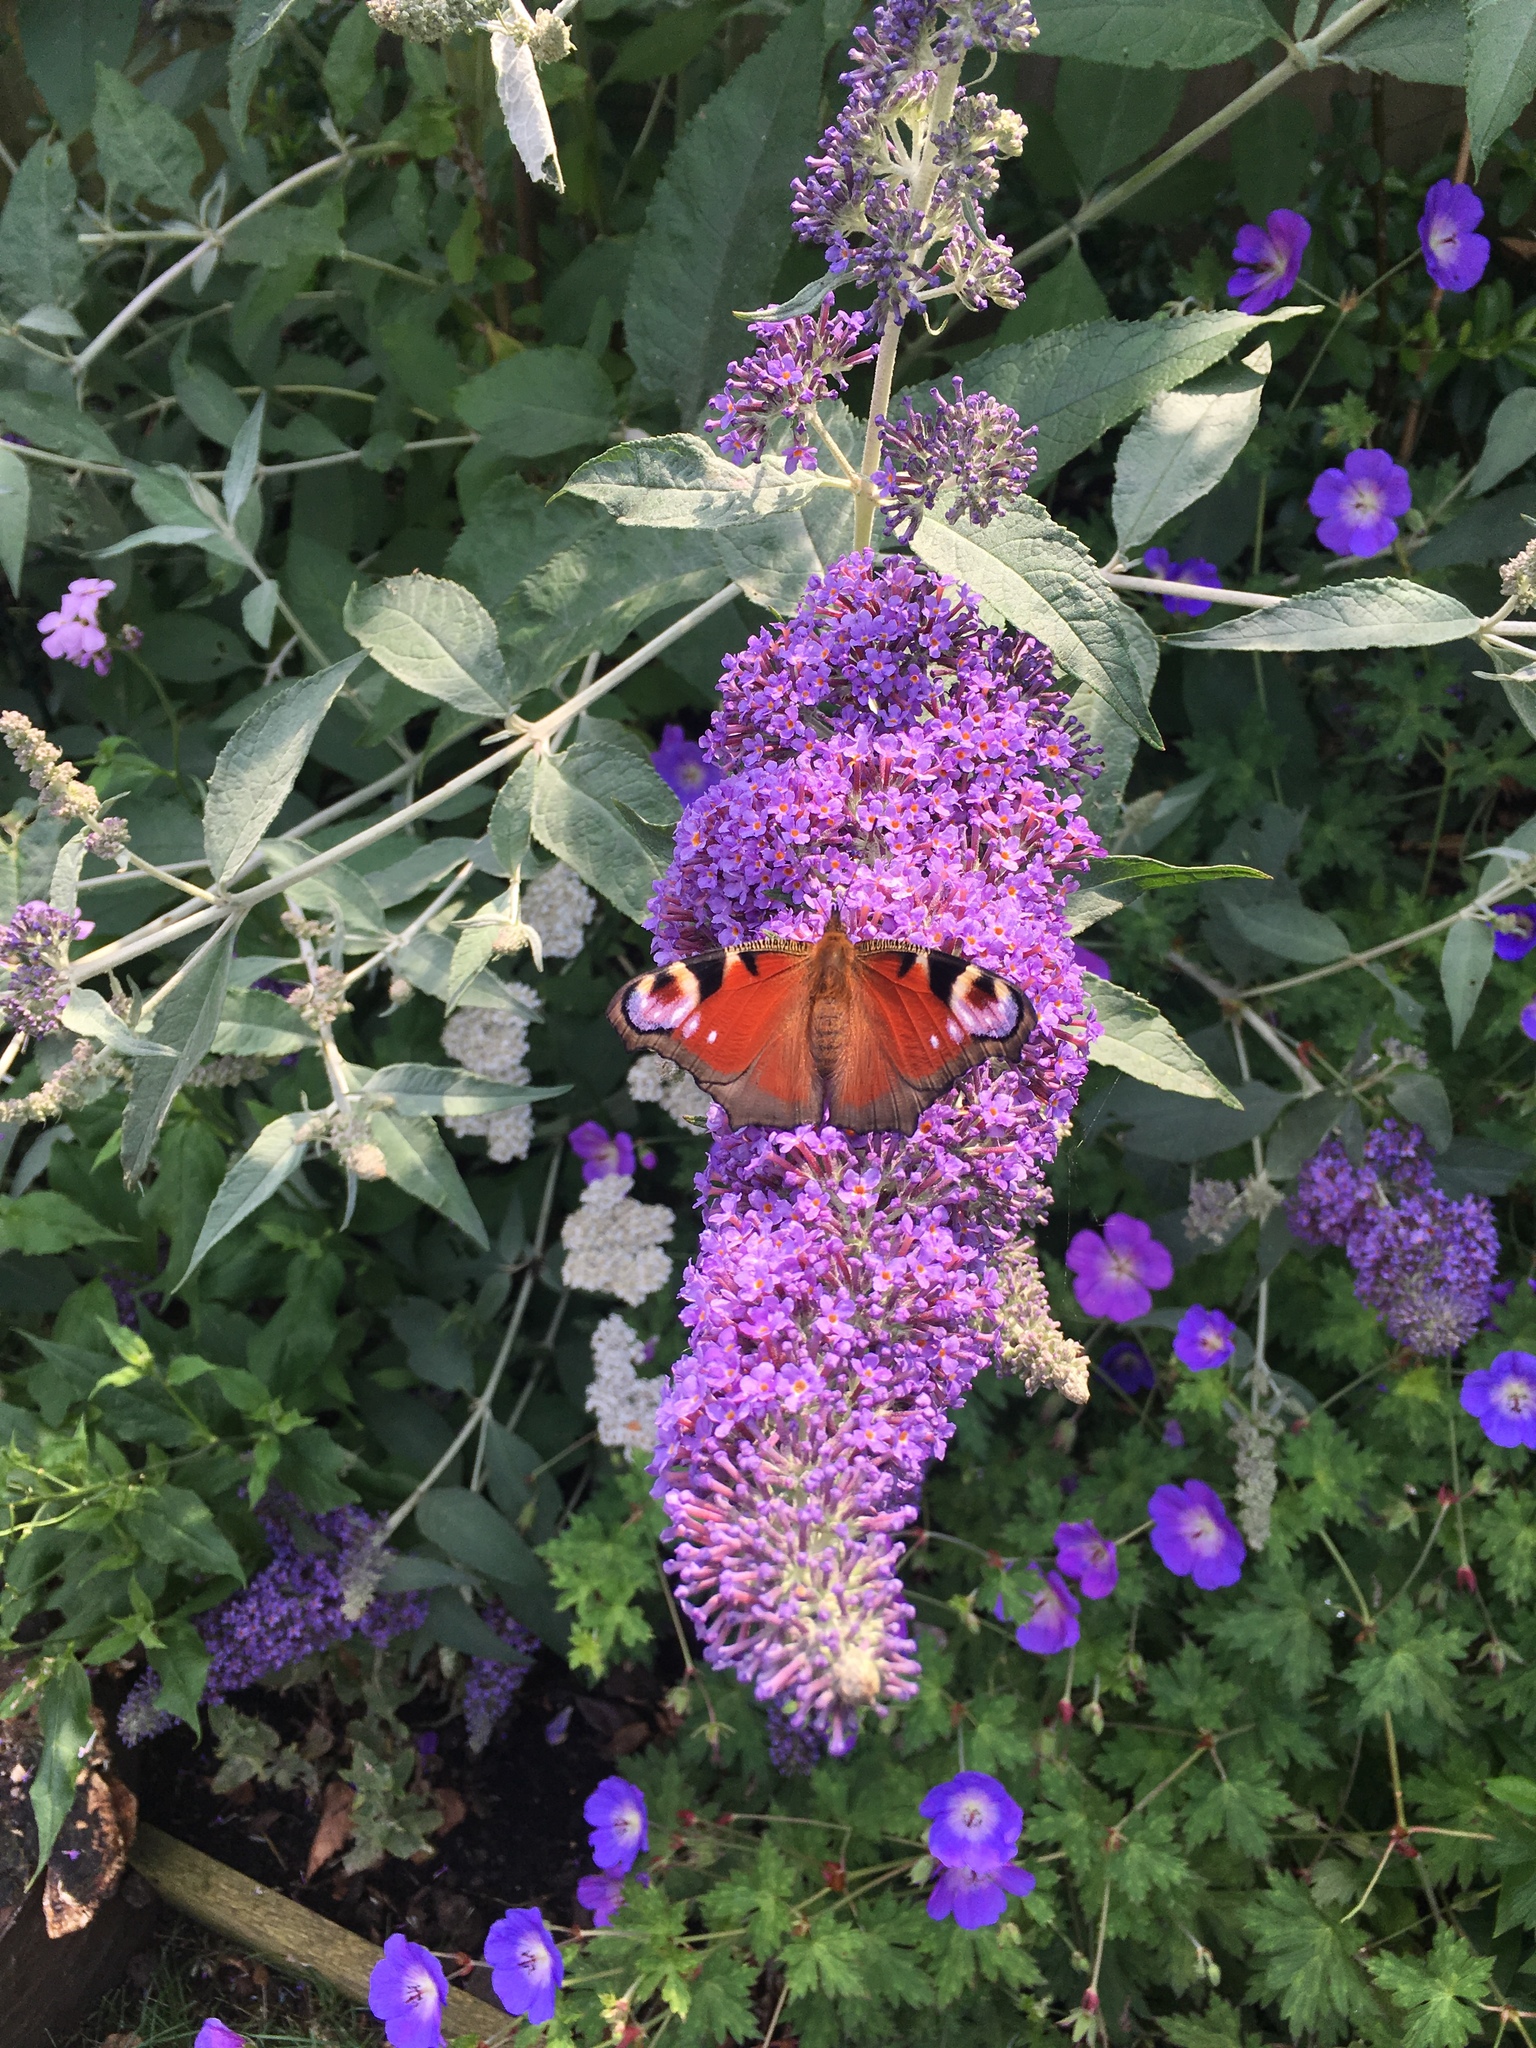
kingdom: Animalia
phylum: Arthropoda
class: Insecta
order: Lepidoptera
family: Nymphalidae
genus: Aglais
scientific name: Aglais io
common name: Peacock
